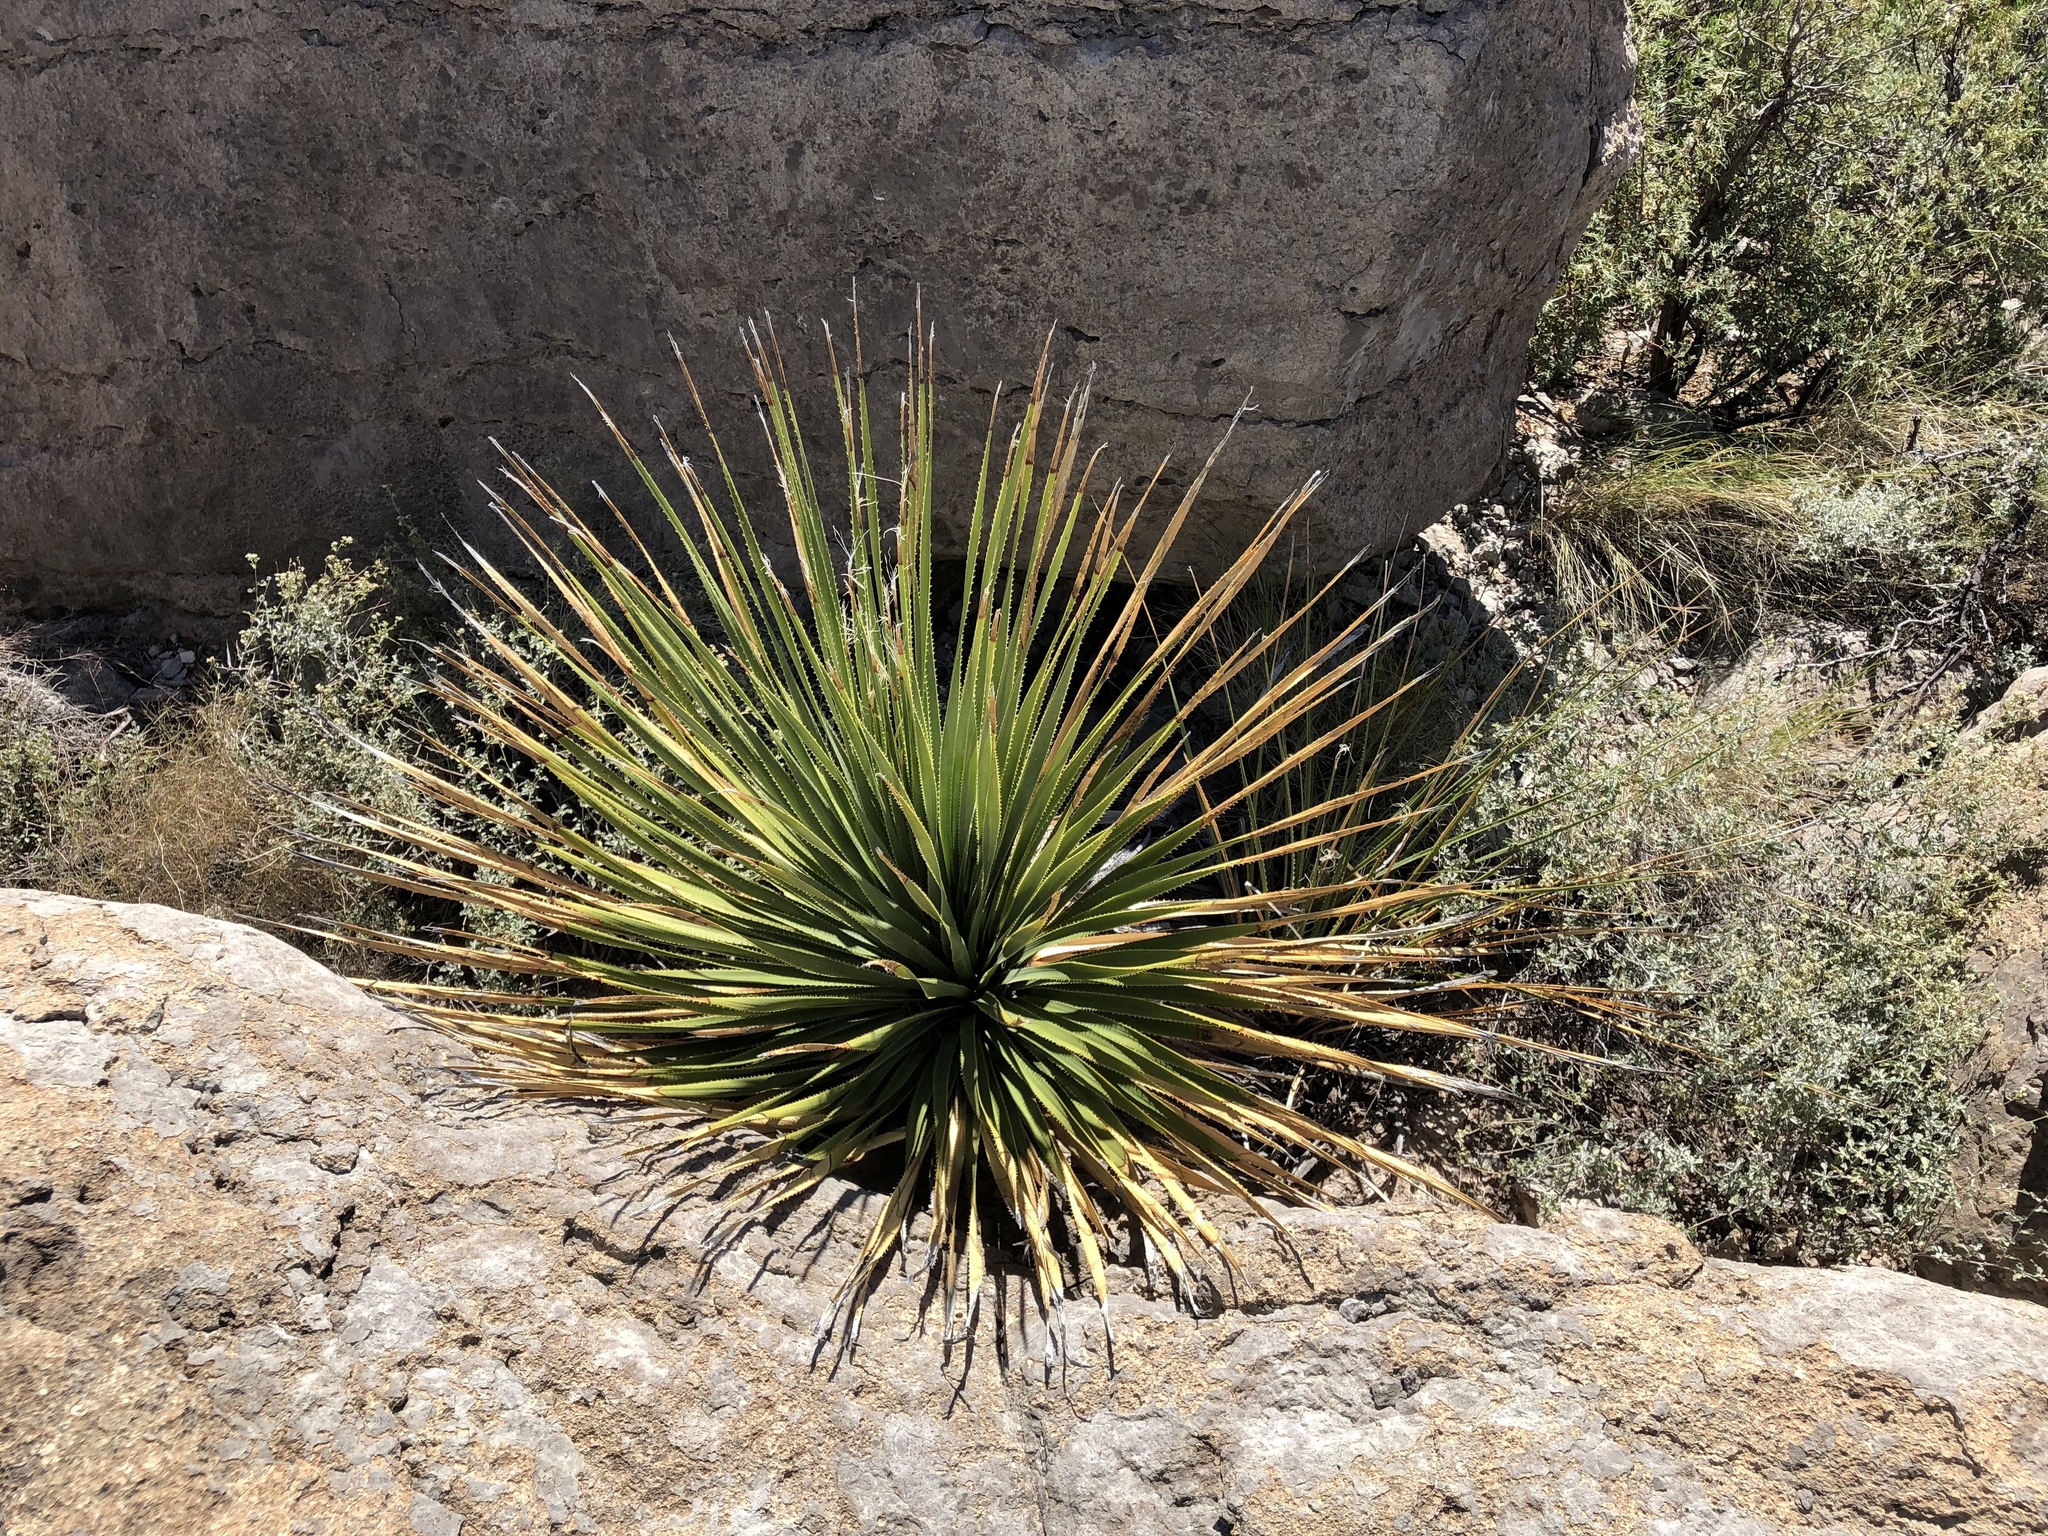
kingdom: Plantae
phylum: Tracheophyta
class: Liliopsida
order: Asparagales
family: Asparagaceae
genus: Dasylirion
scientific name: Dasylirion wheeleri
